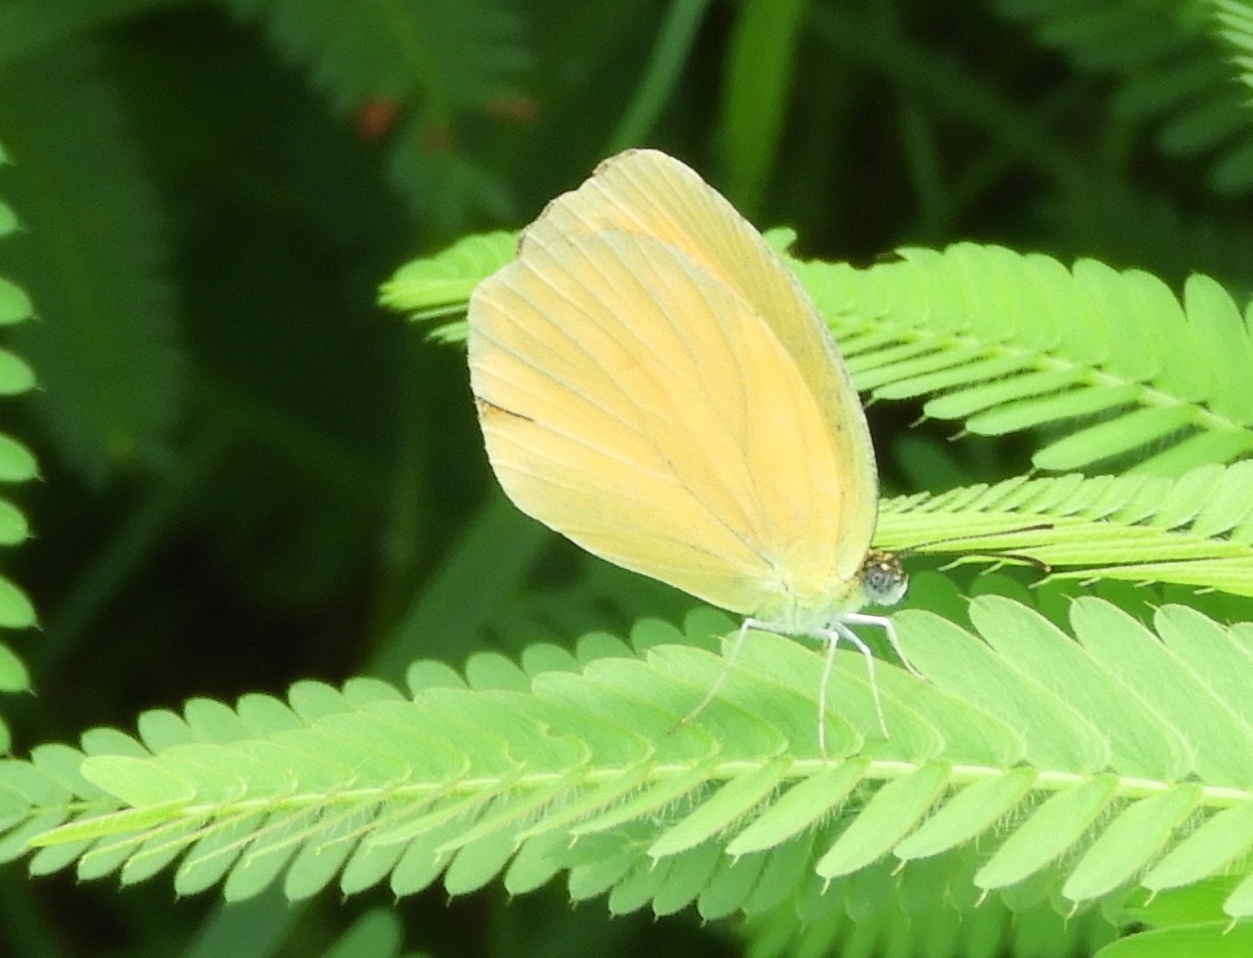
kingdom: Animalia
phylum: Arthropoda
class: Insecta
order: Lepidoptera
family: Pieridae
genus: Pyrisitia
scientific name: Pyrisitia proterpia
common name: Tailed orange
